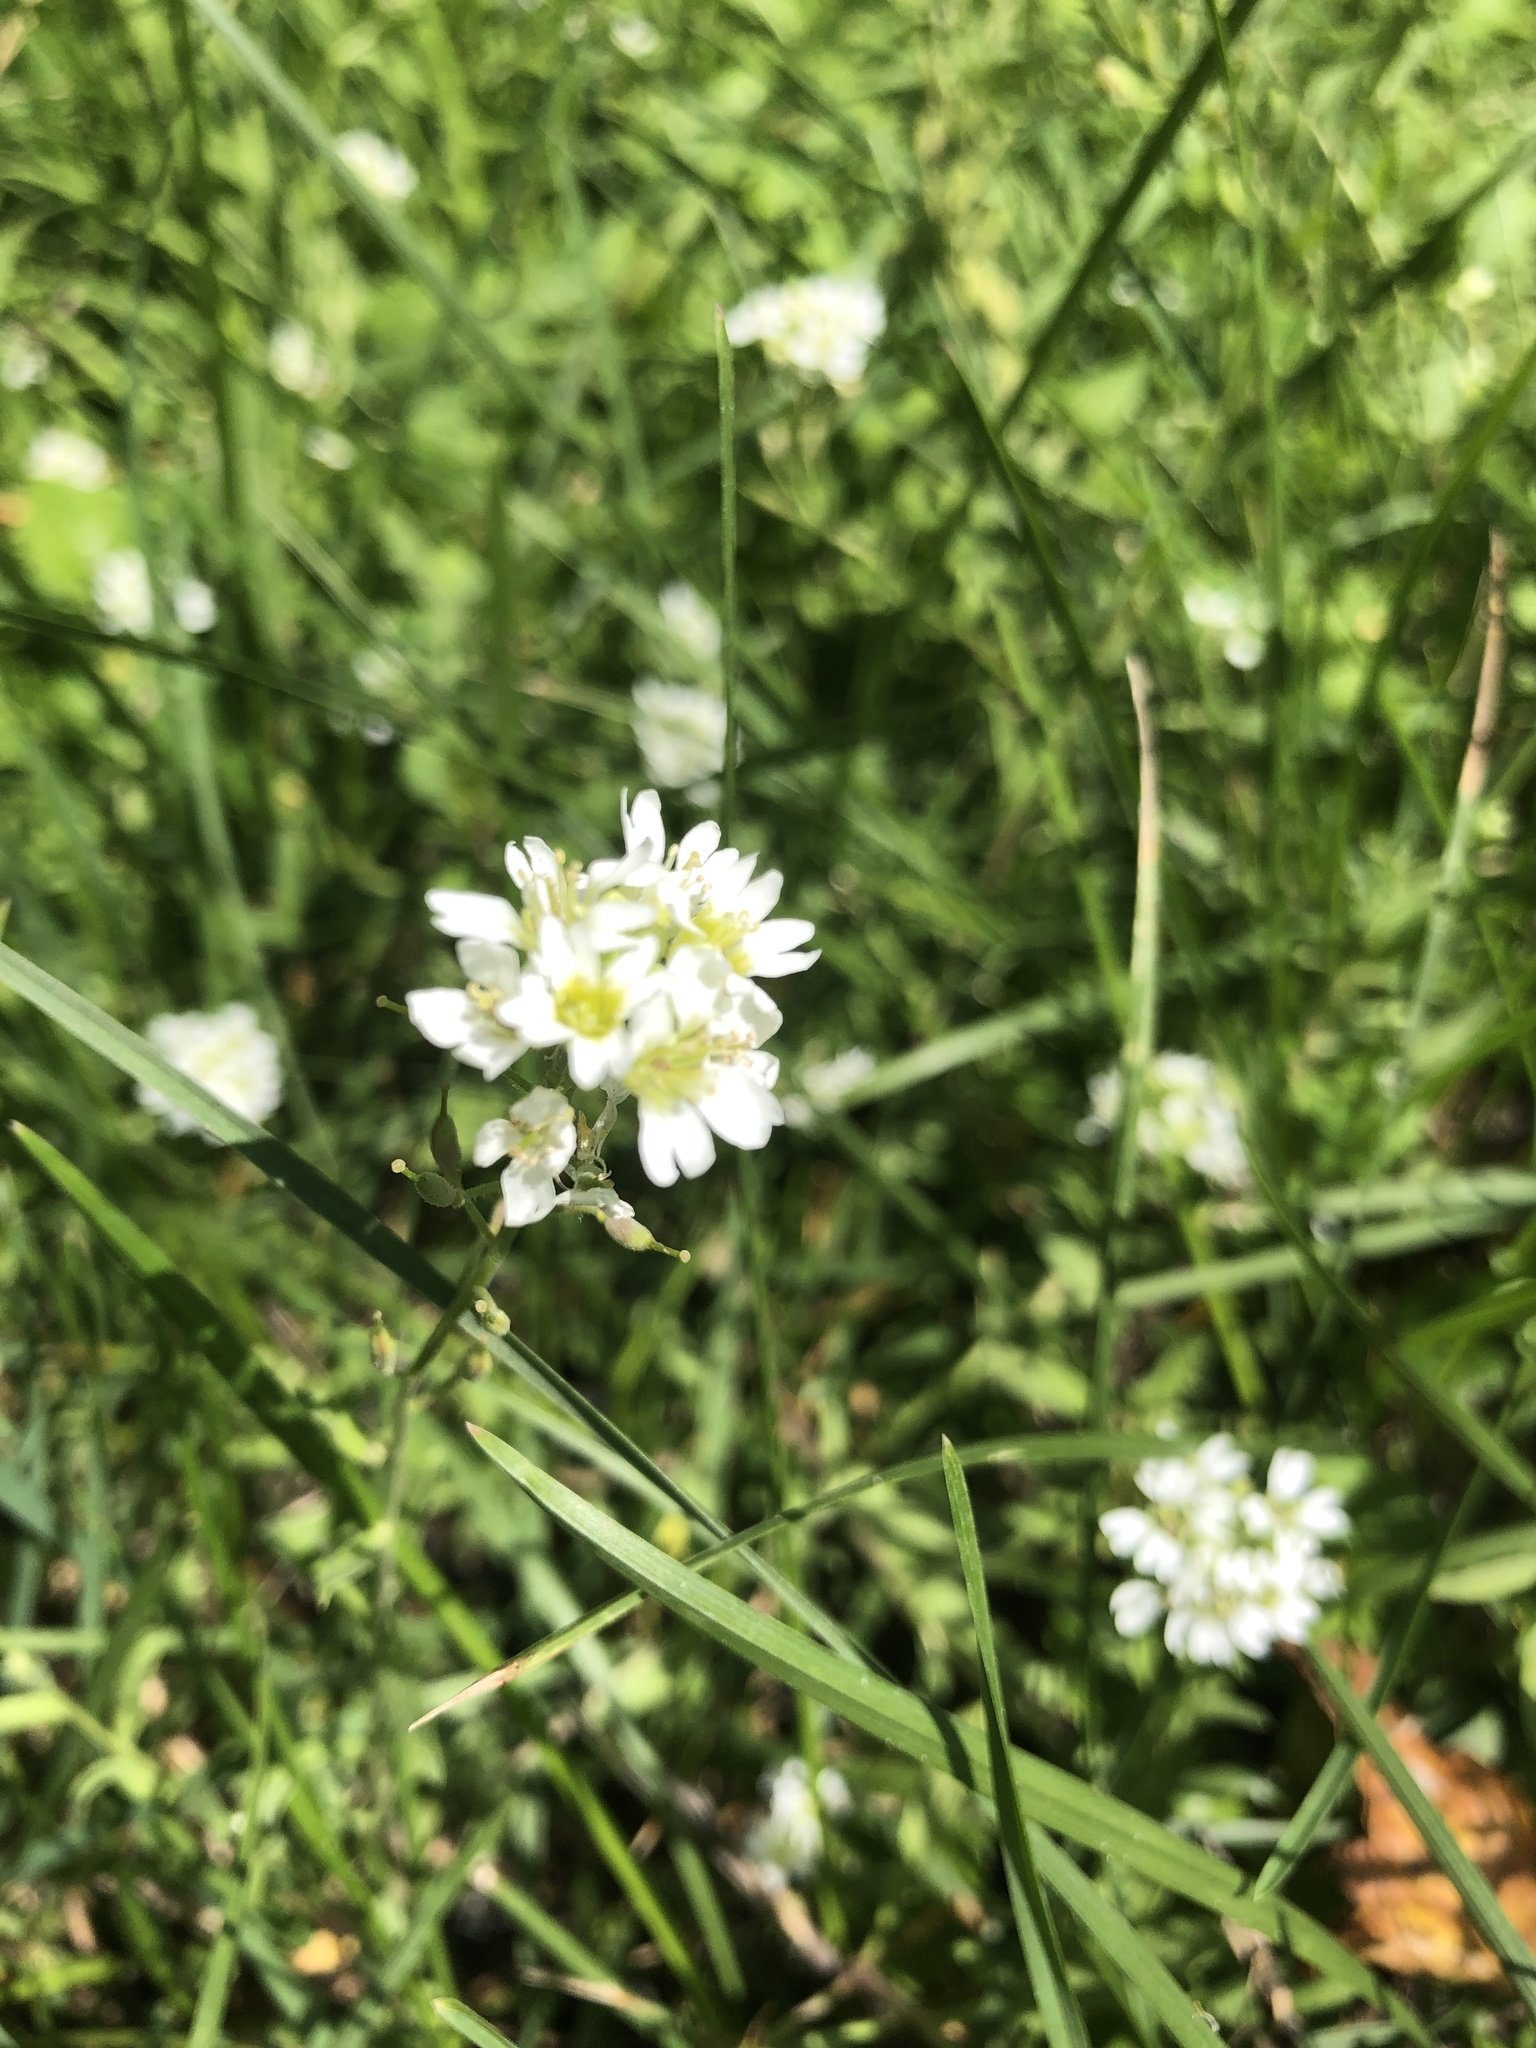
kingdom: Plantae
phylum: Tracheophyta
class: Magnoliopsida
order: Brassicales
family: Brassicaceae
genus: Berteroa
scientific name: Berteroa incana
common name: Hoary alison
